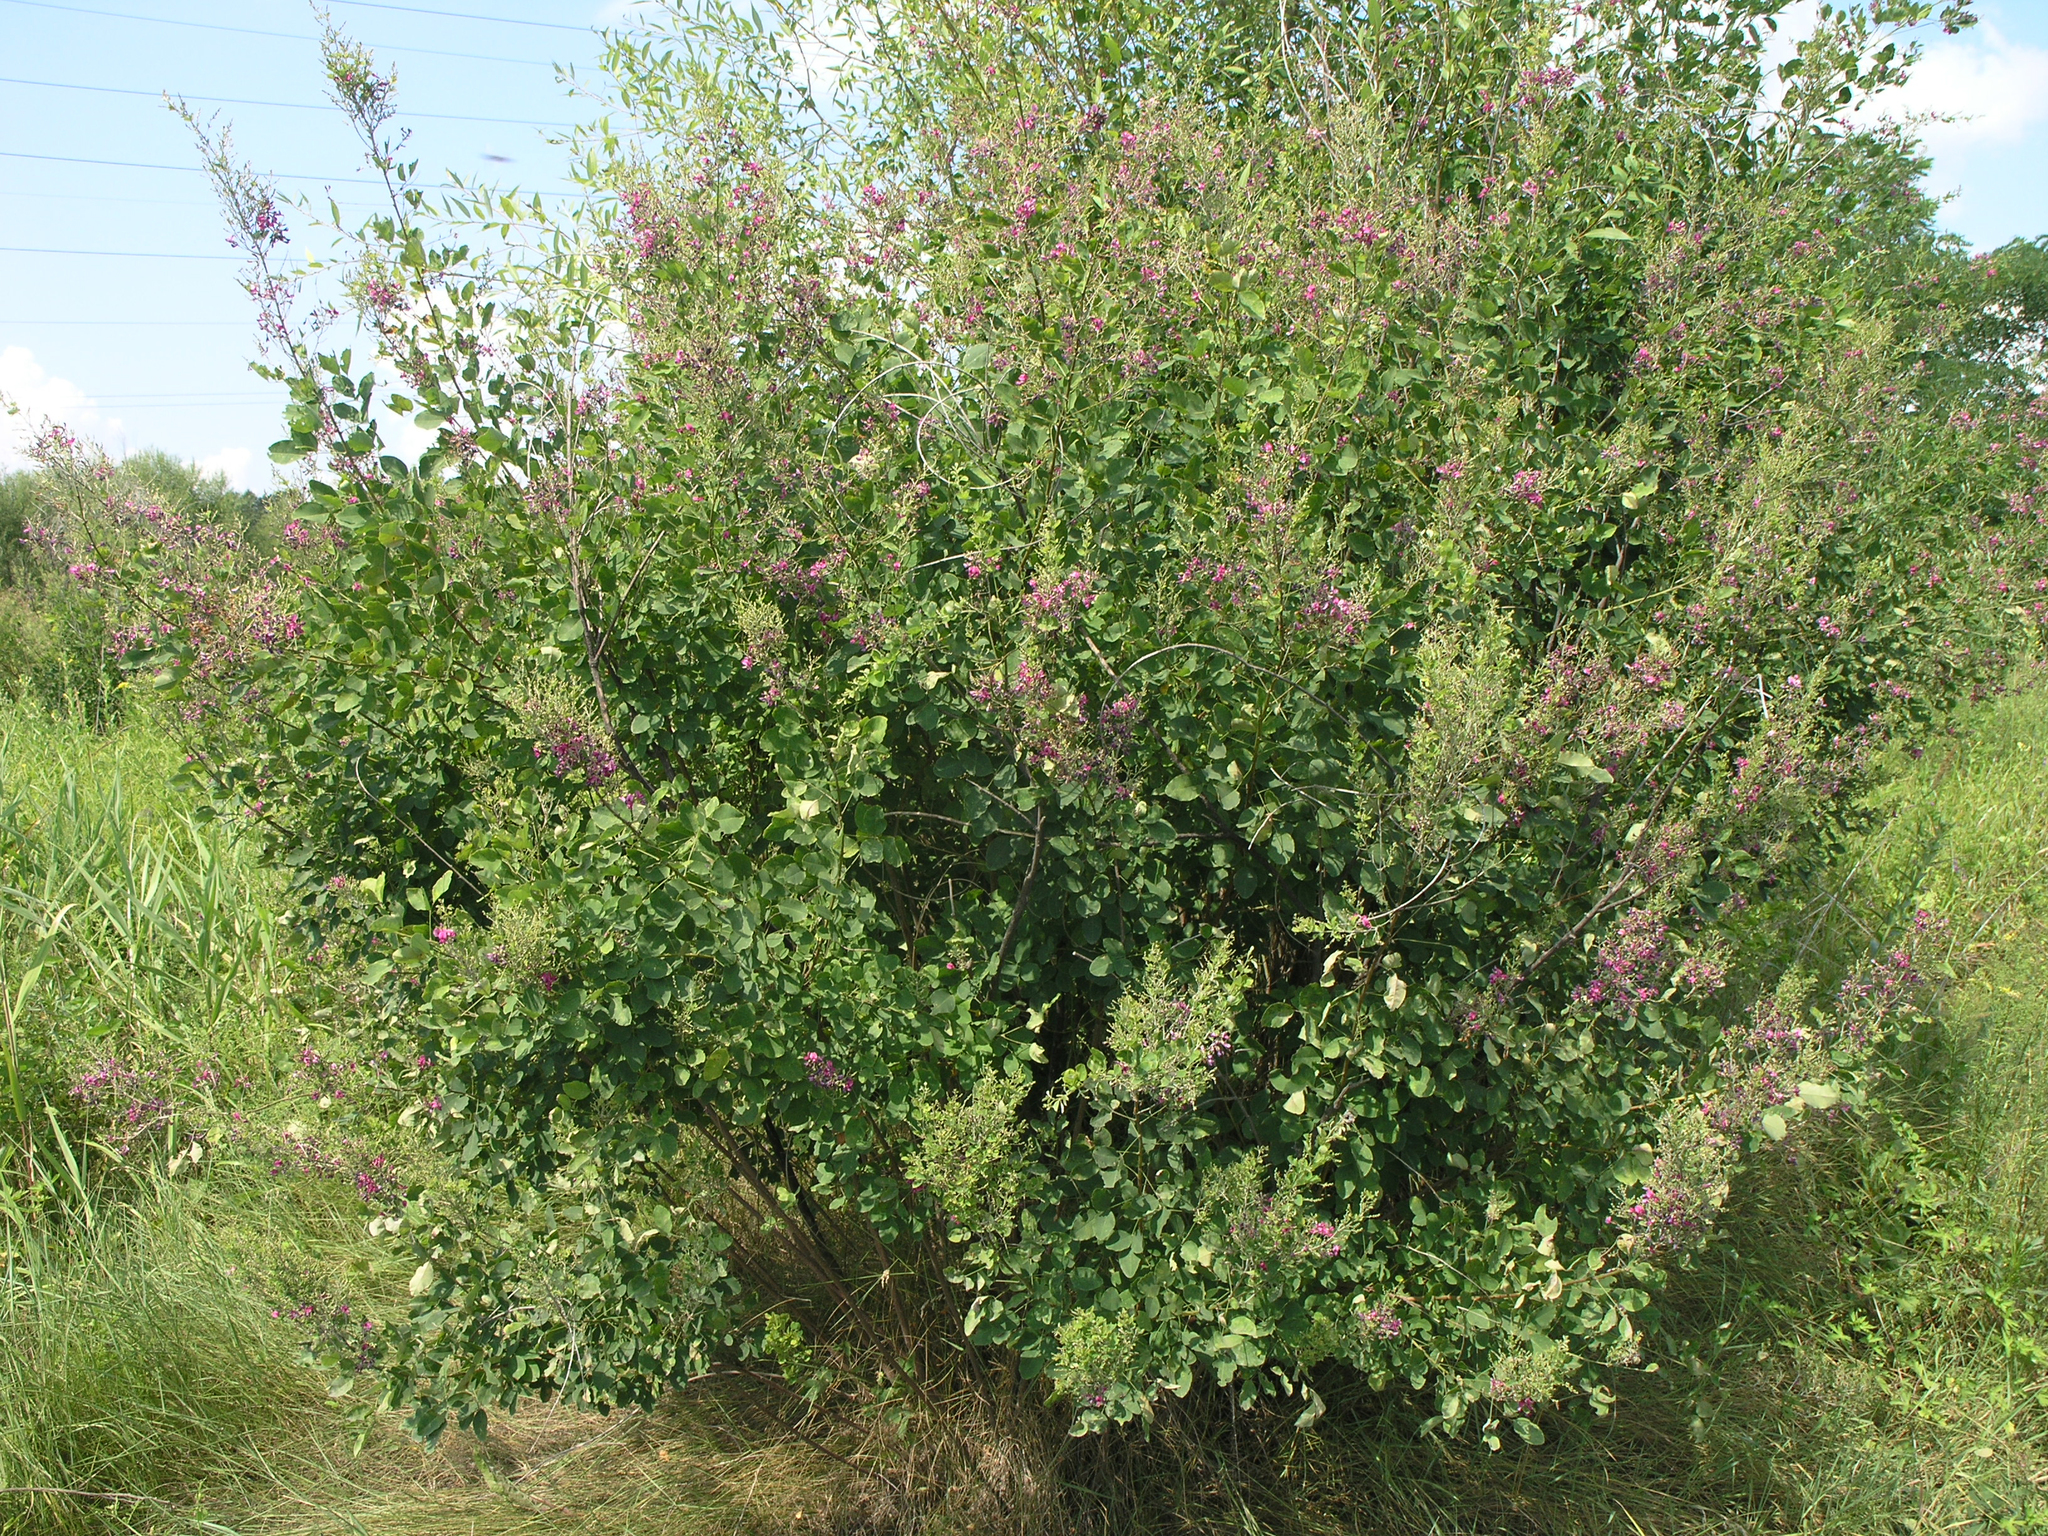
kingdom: Plantae
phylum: Tracheophyta
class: Magnoliopsida
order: Fabales
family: Fabaceae
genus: Lespedeza
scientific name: Lespedeza bicolor
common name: Shrub lespedeza
